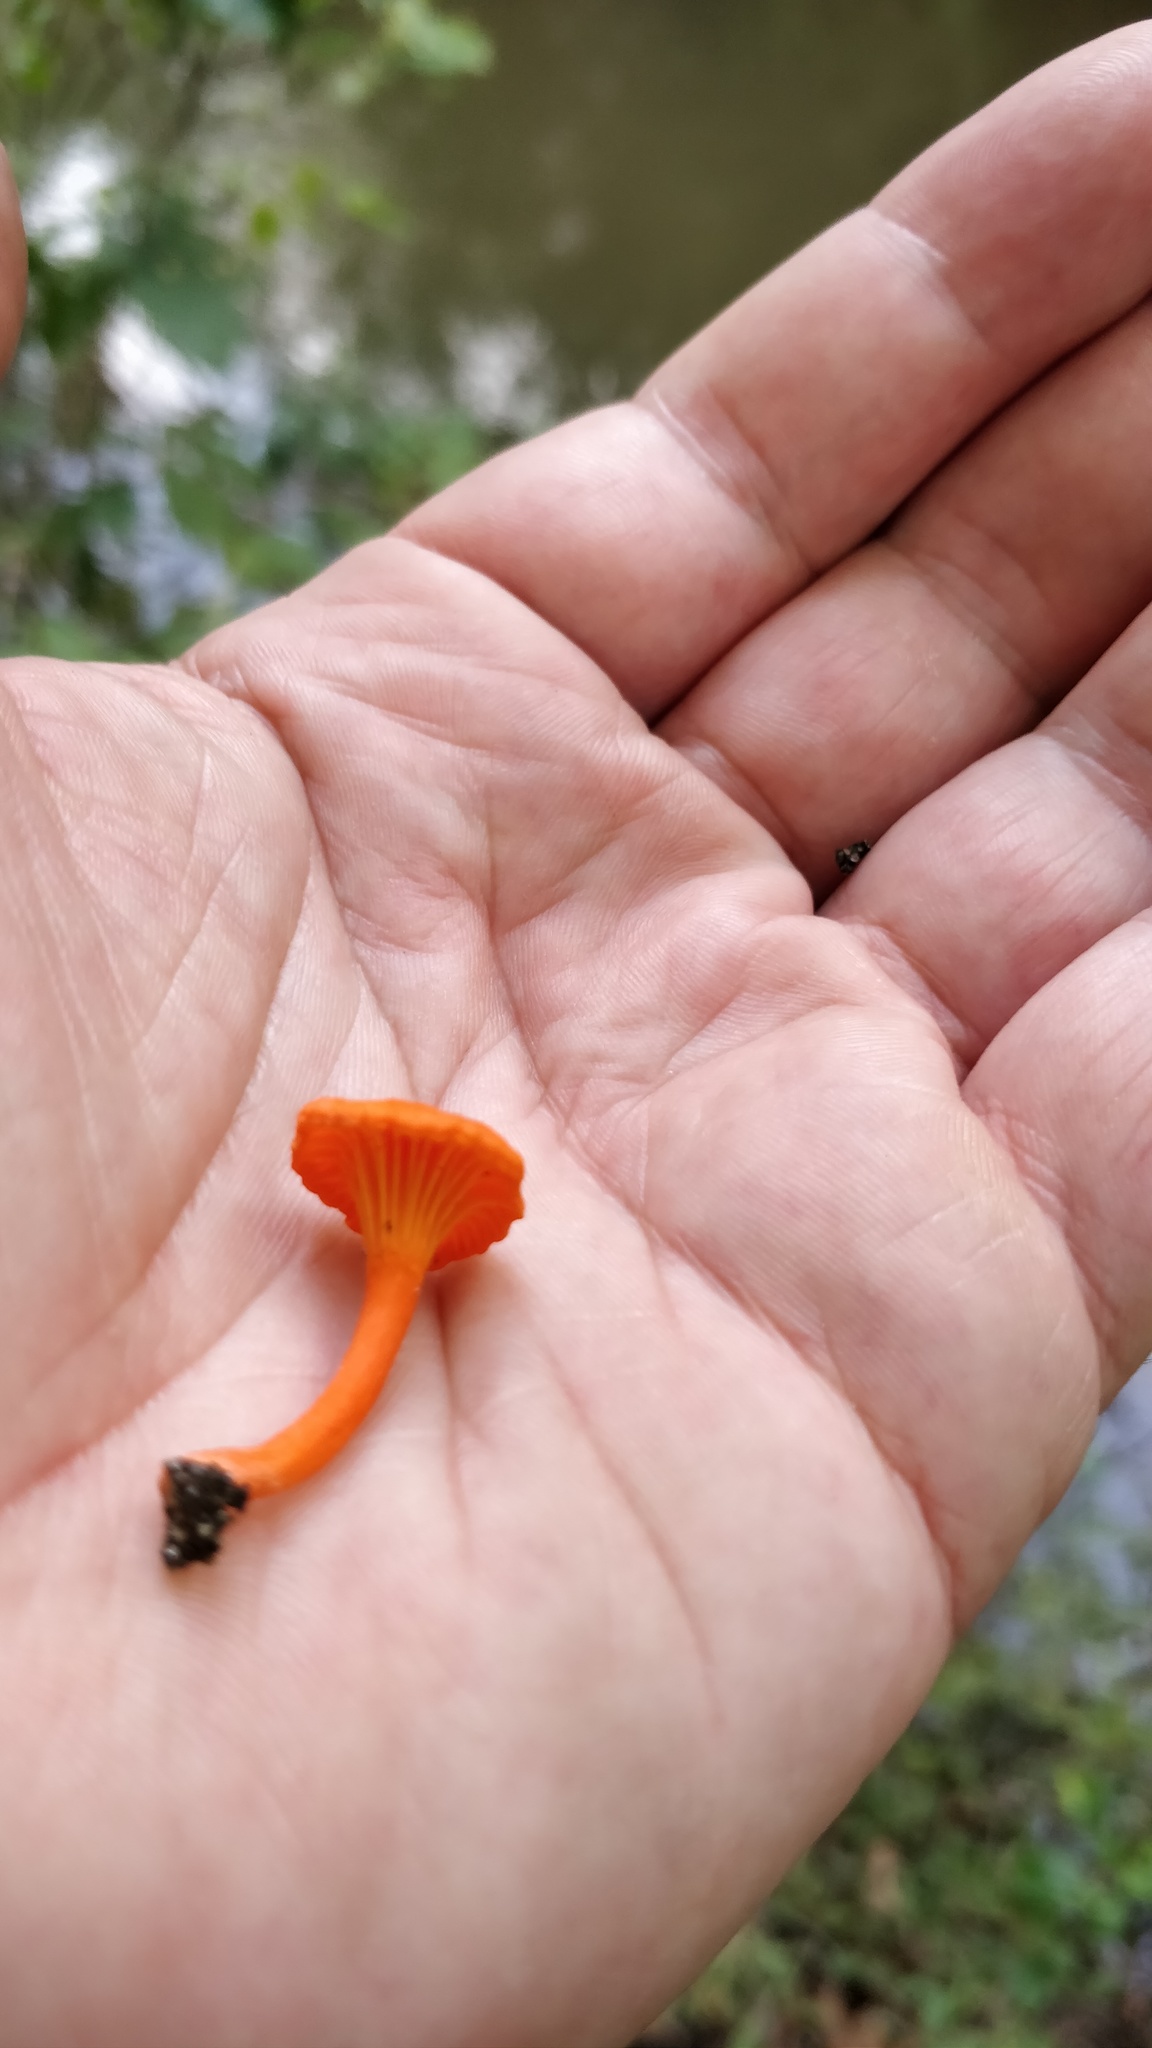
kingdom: Fungi
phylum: Basidiomycota
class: Agaricomycetes
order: Cantharellales
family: Hydnaceae
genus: Cantharellus
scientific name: Cantharellus cinnabarinus
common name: Cinnabar chanterelle
